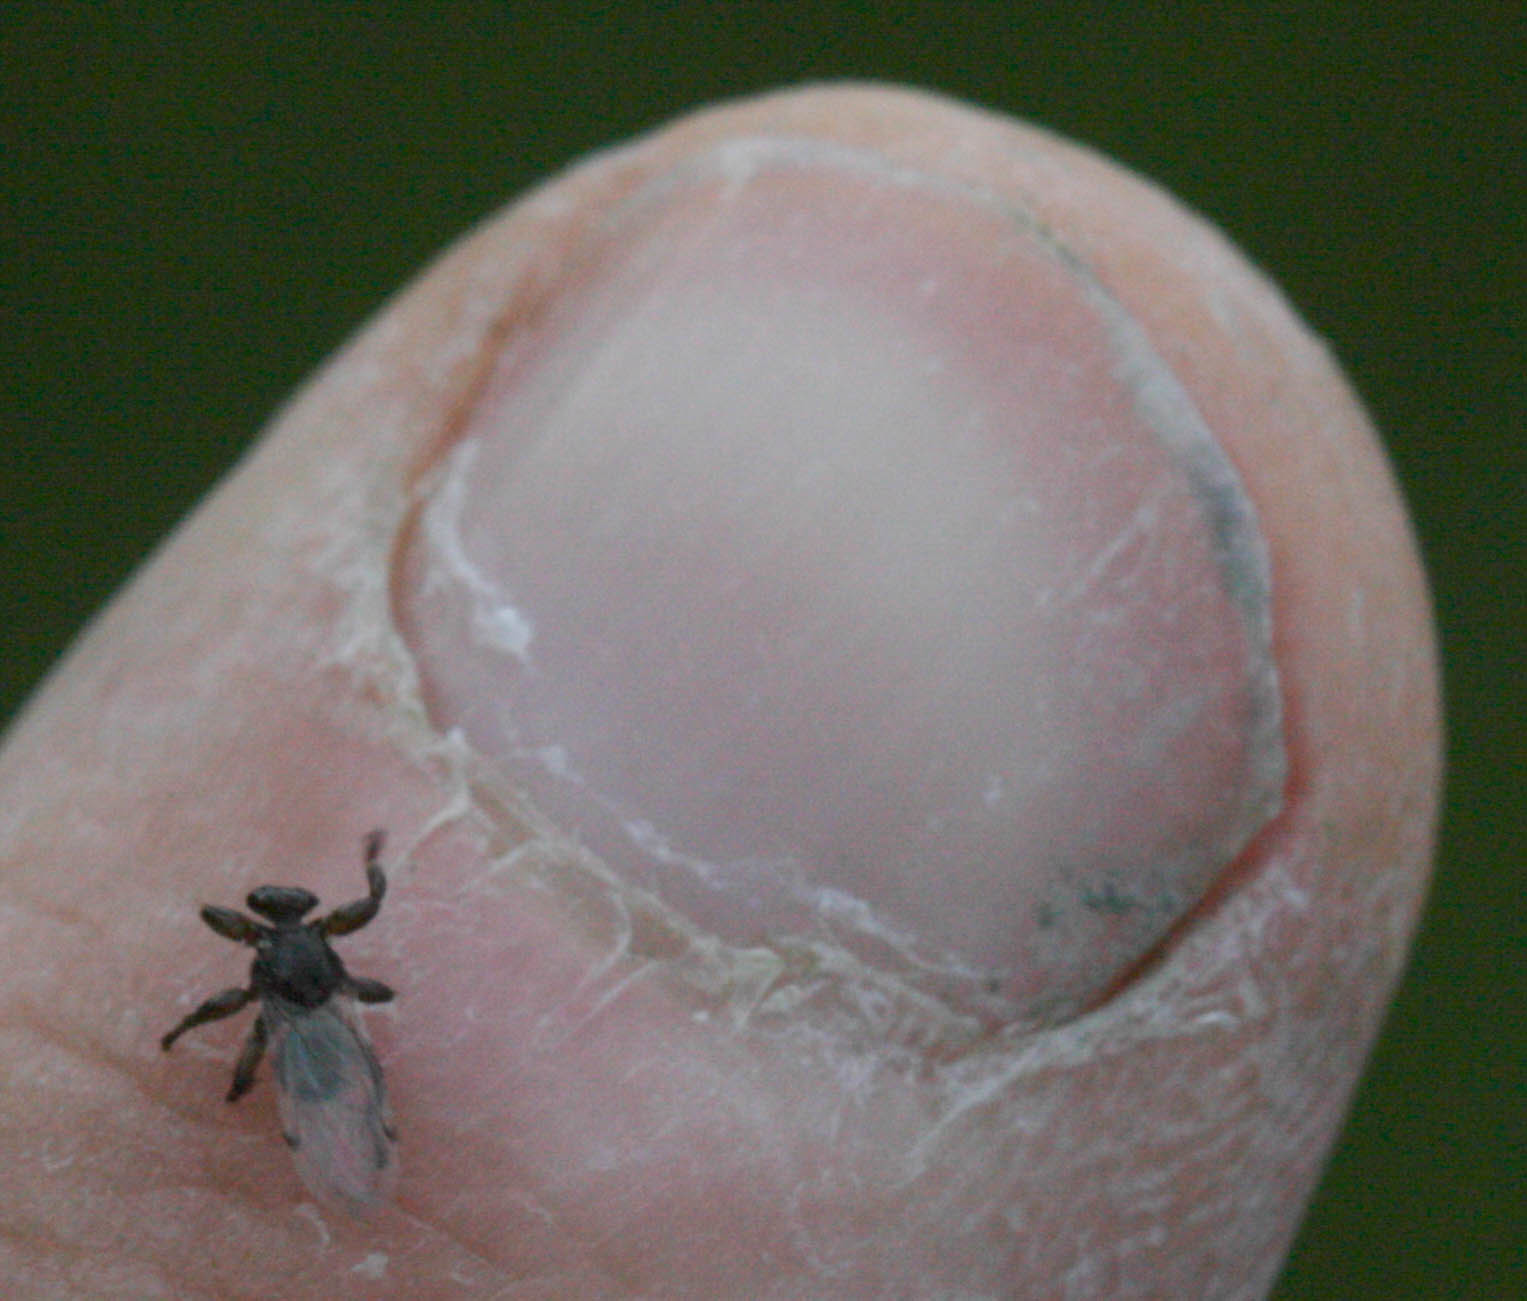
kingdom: Animalia
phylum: Arthropoda
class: Insecta
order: Diptera
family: Hippoboscidae
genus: Lipoptena
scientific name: Lipoptena depressa
